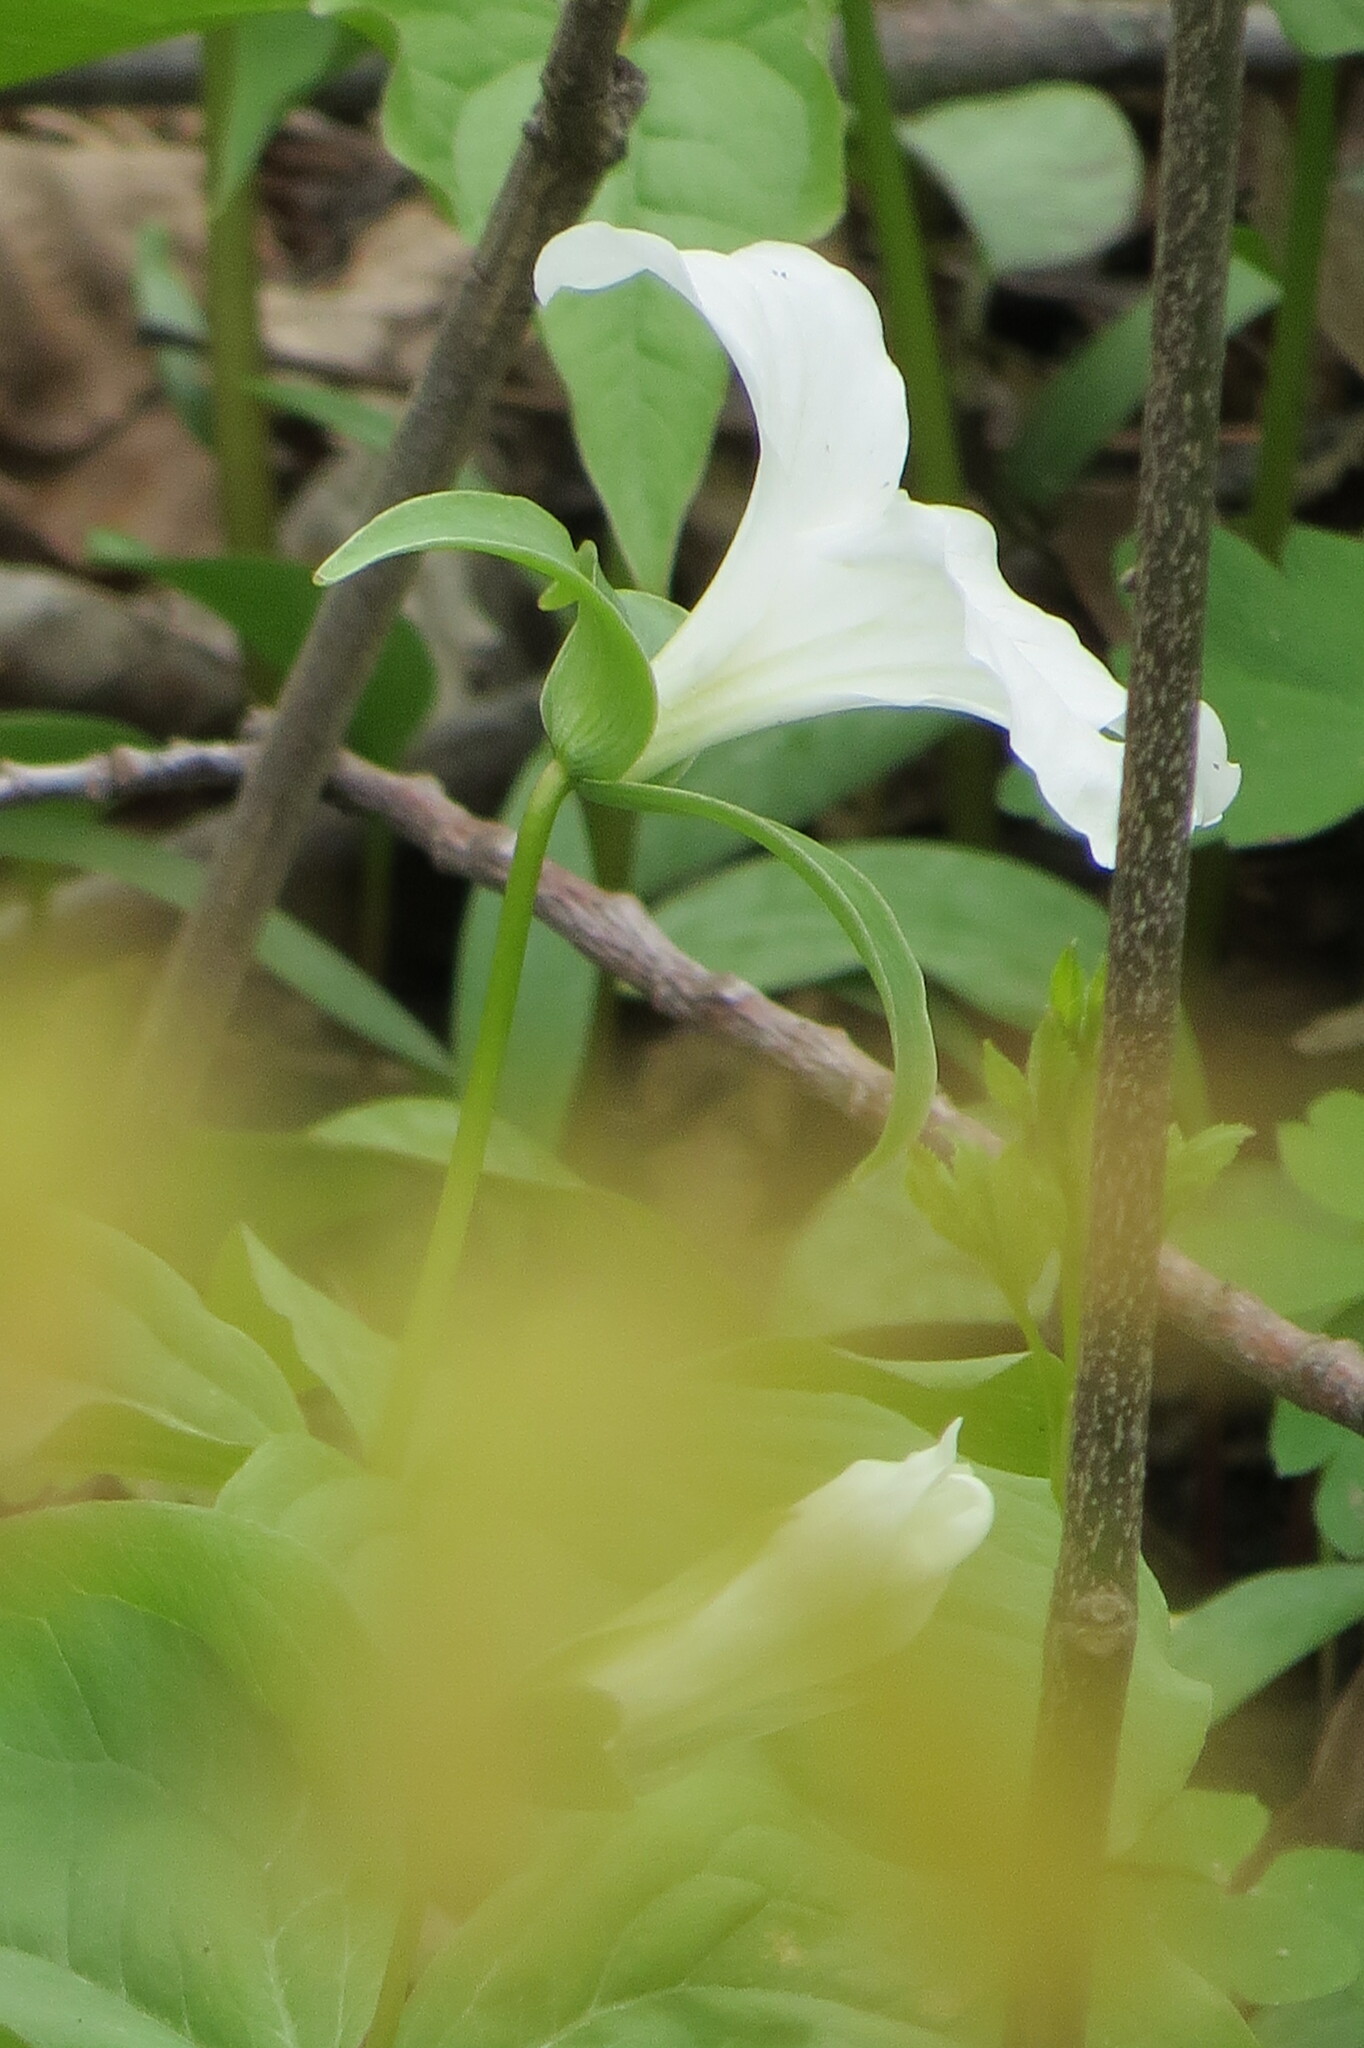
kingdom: Plantae
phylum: Tracheophyta
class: Liliopsida
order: Liliales
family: Melanthiaceae
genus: Trillium
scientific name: Trillium grandiflorum
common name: Great white trillium
